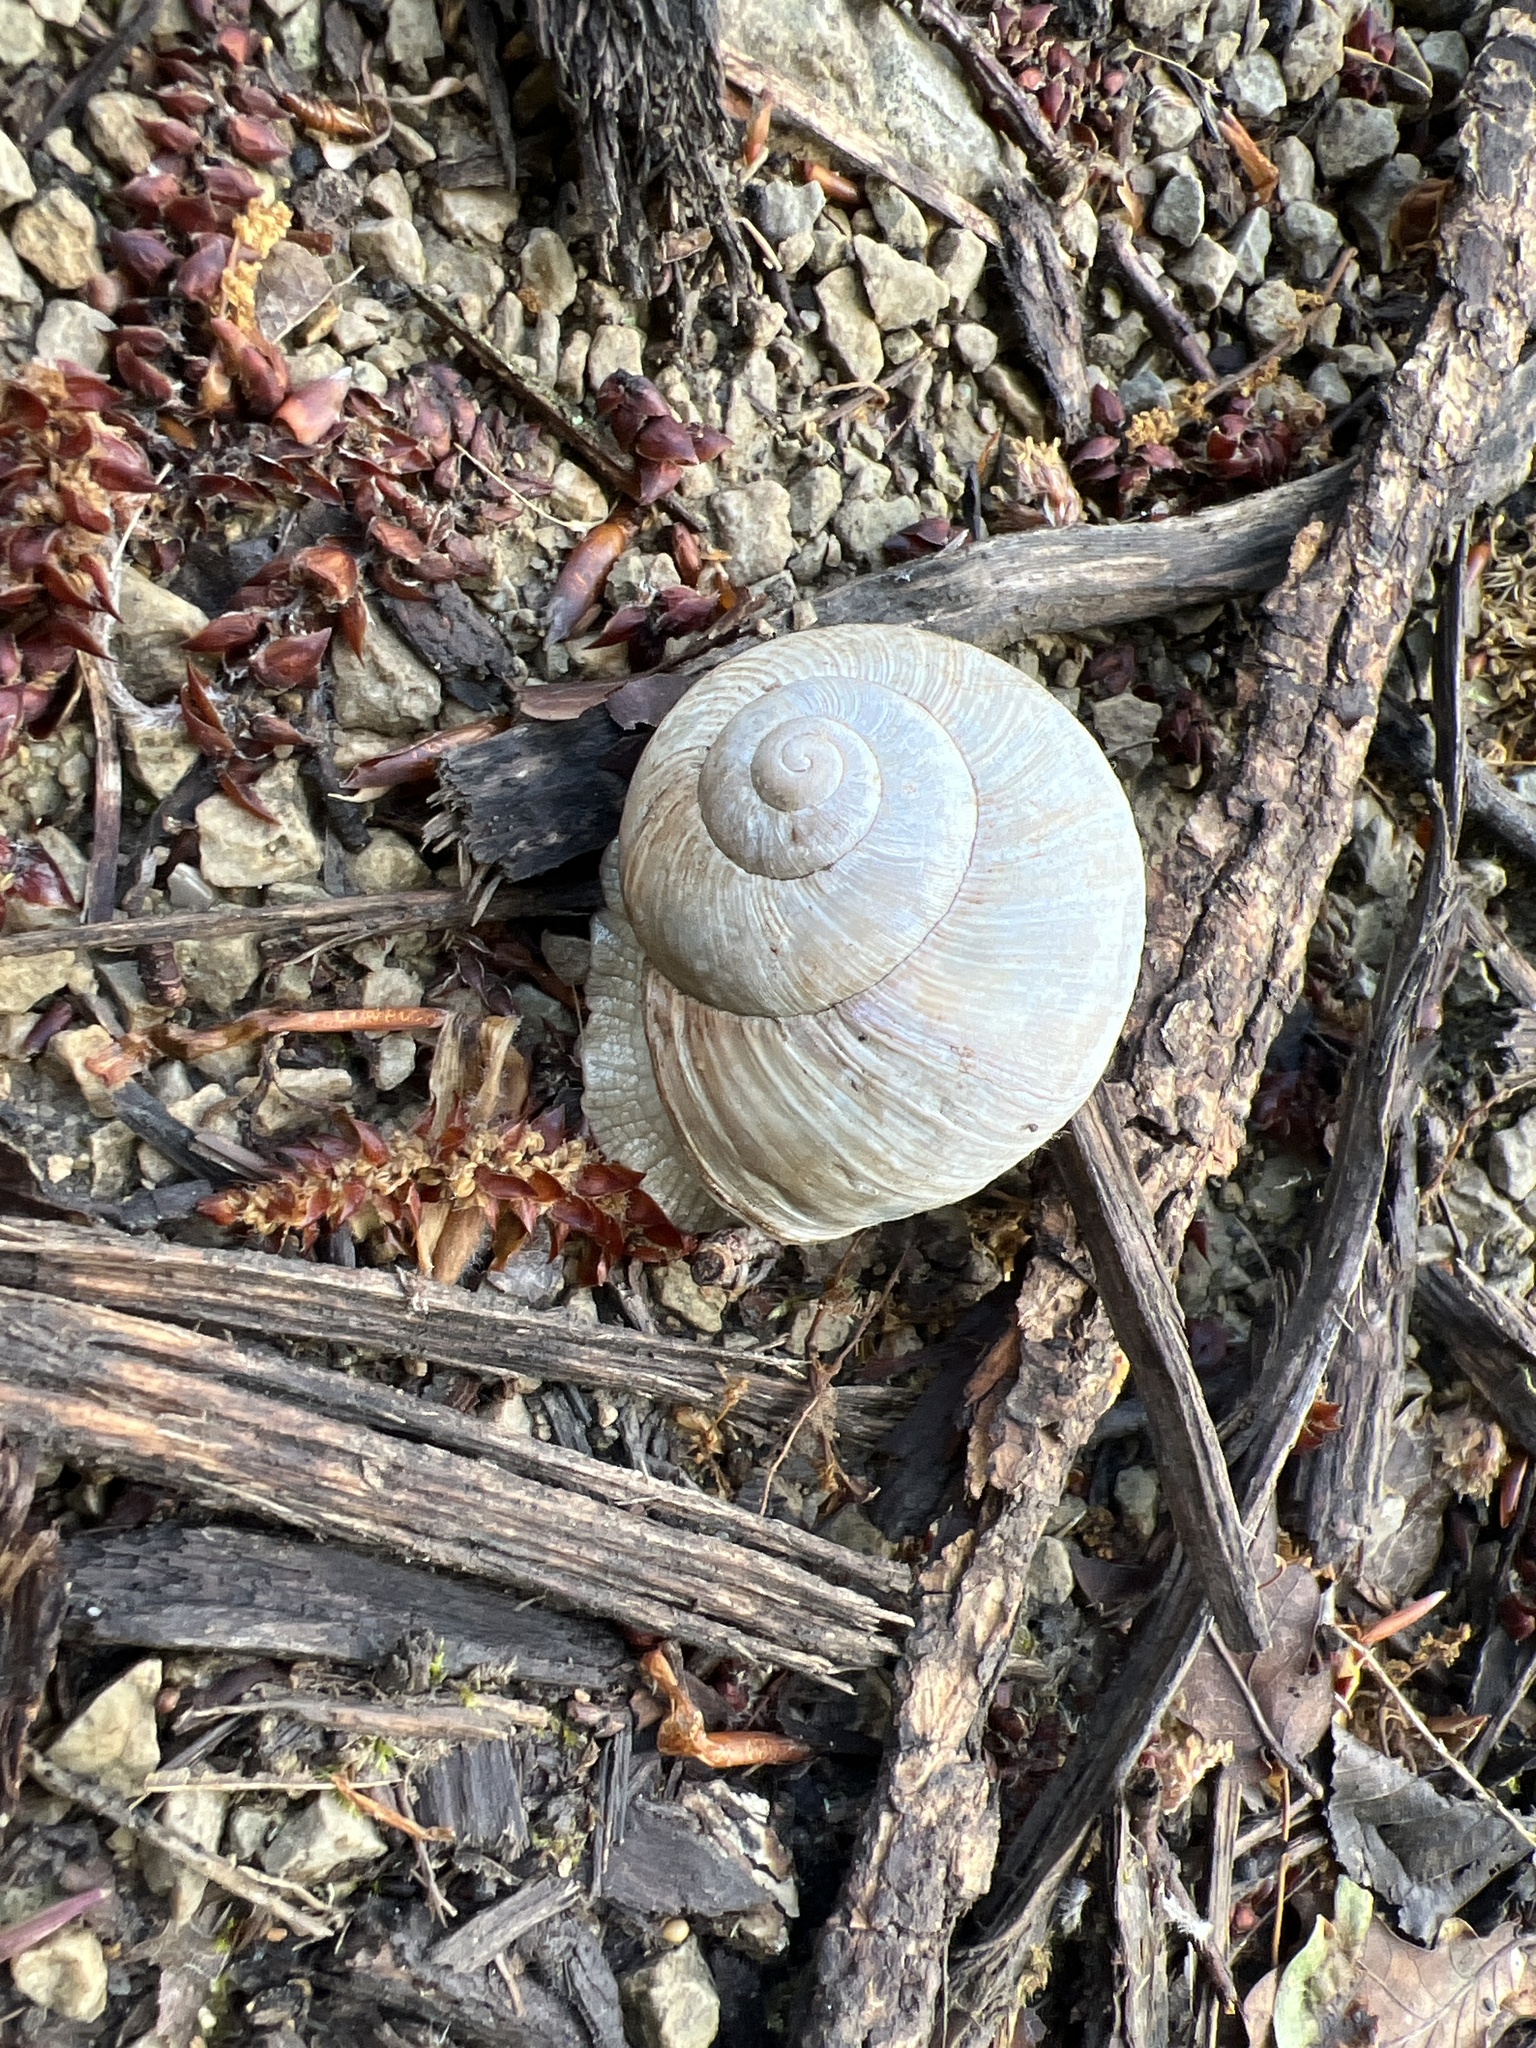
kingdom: Animalia
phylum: Mollusca
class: Gastropoda
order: Stylommatophora
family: Helicidae
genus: Helix
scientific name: Helix pomatia
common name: Roman snail
